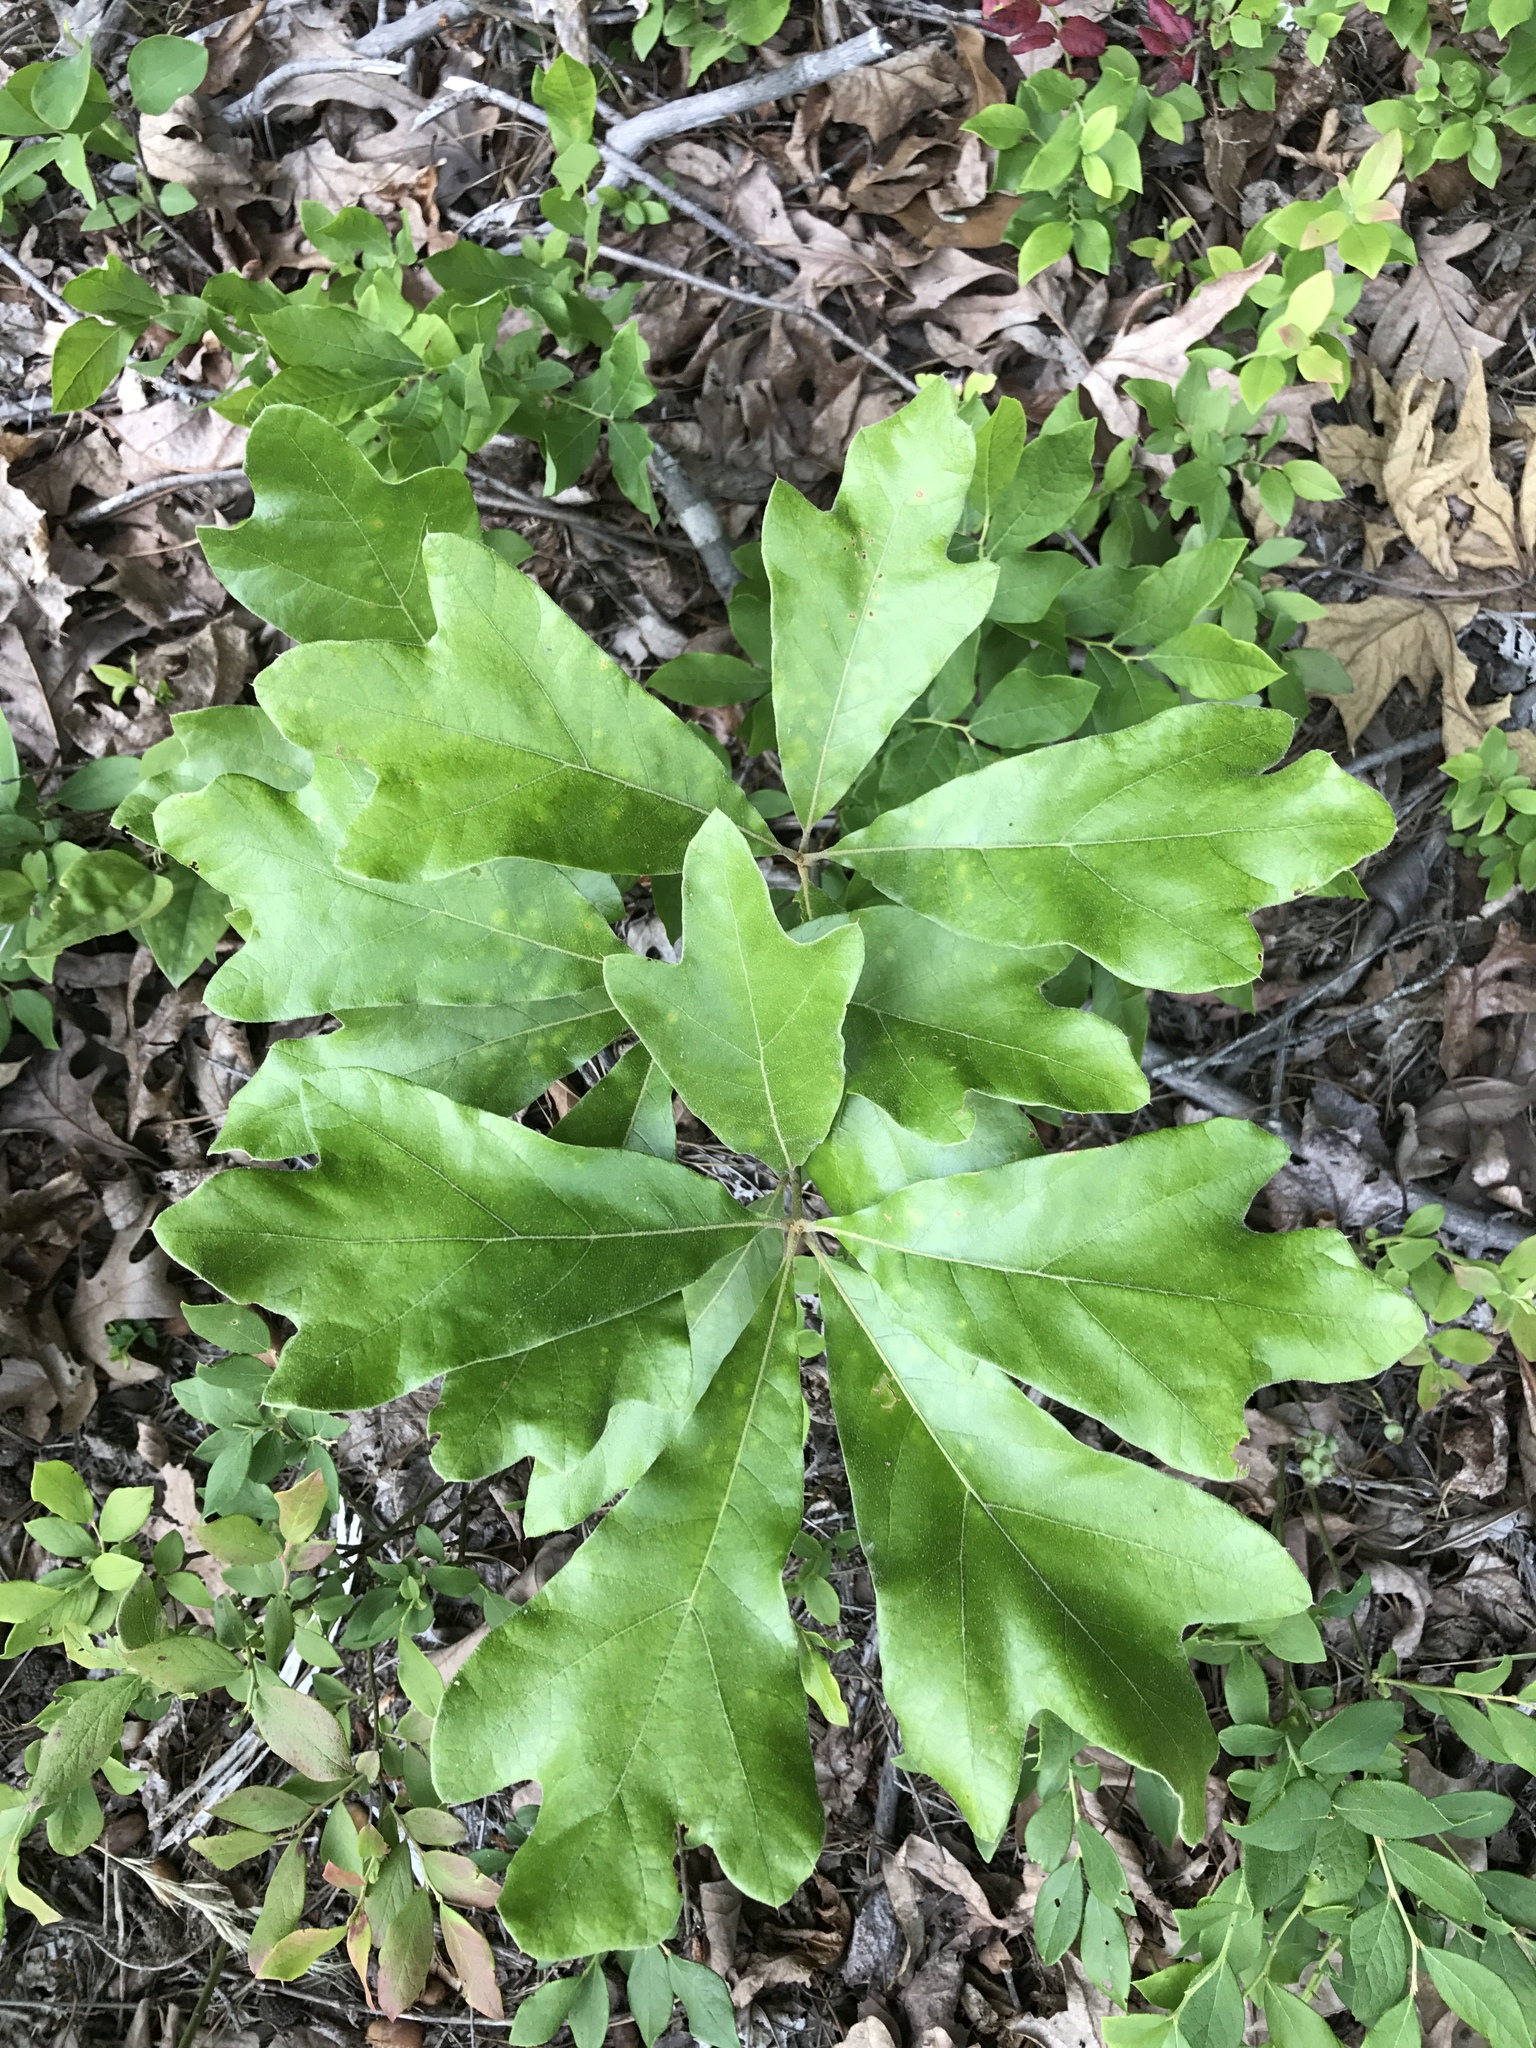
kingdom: Plantae
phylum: Tracheophyta
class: Magnoliopsida
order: Fagales
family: Fagaceae
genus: Quercus
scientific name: Quercus falcata
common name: Southern red oak
